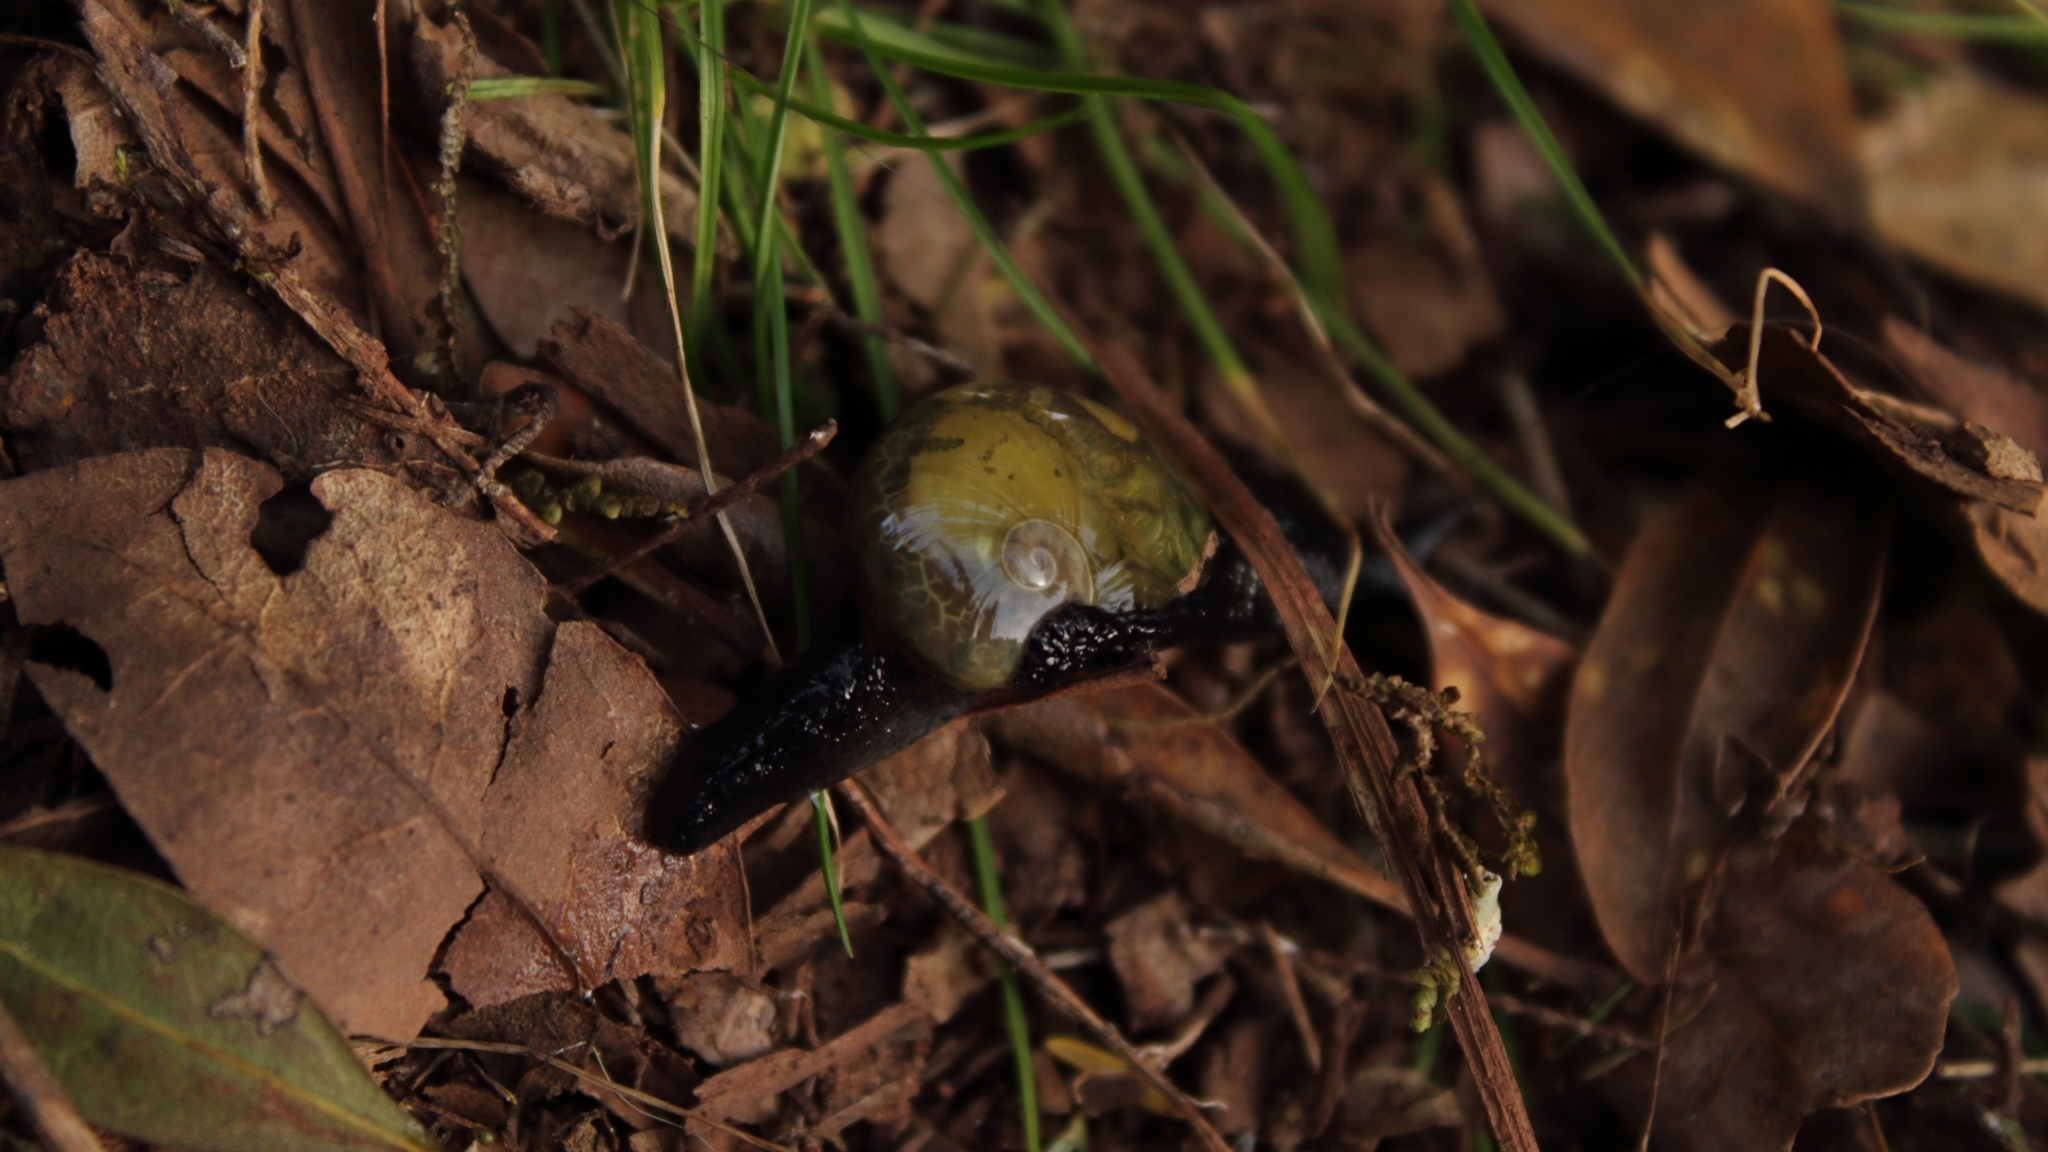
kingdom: Animalia
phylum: Mollusca
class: Gastropoda
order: Stylommatophora
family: Vitrinidae
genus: Insulivitrina
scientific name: Insulivitrina lamarckii
